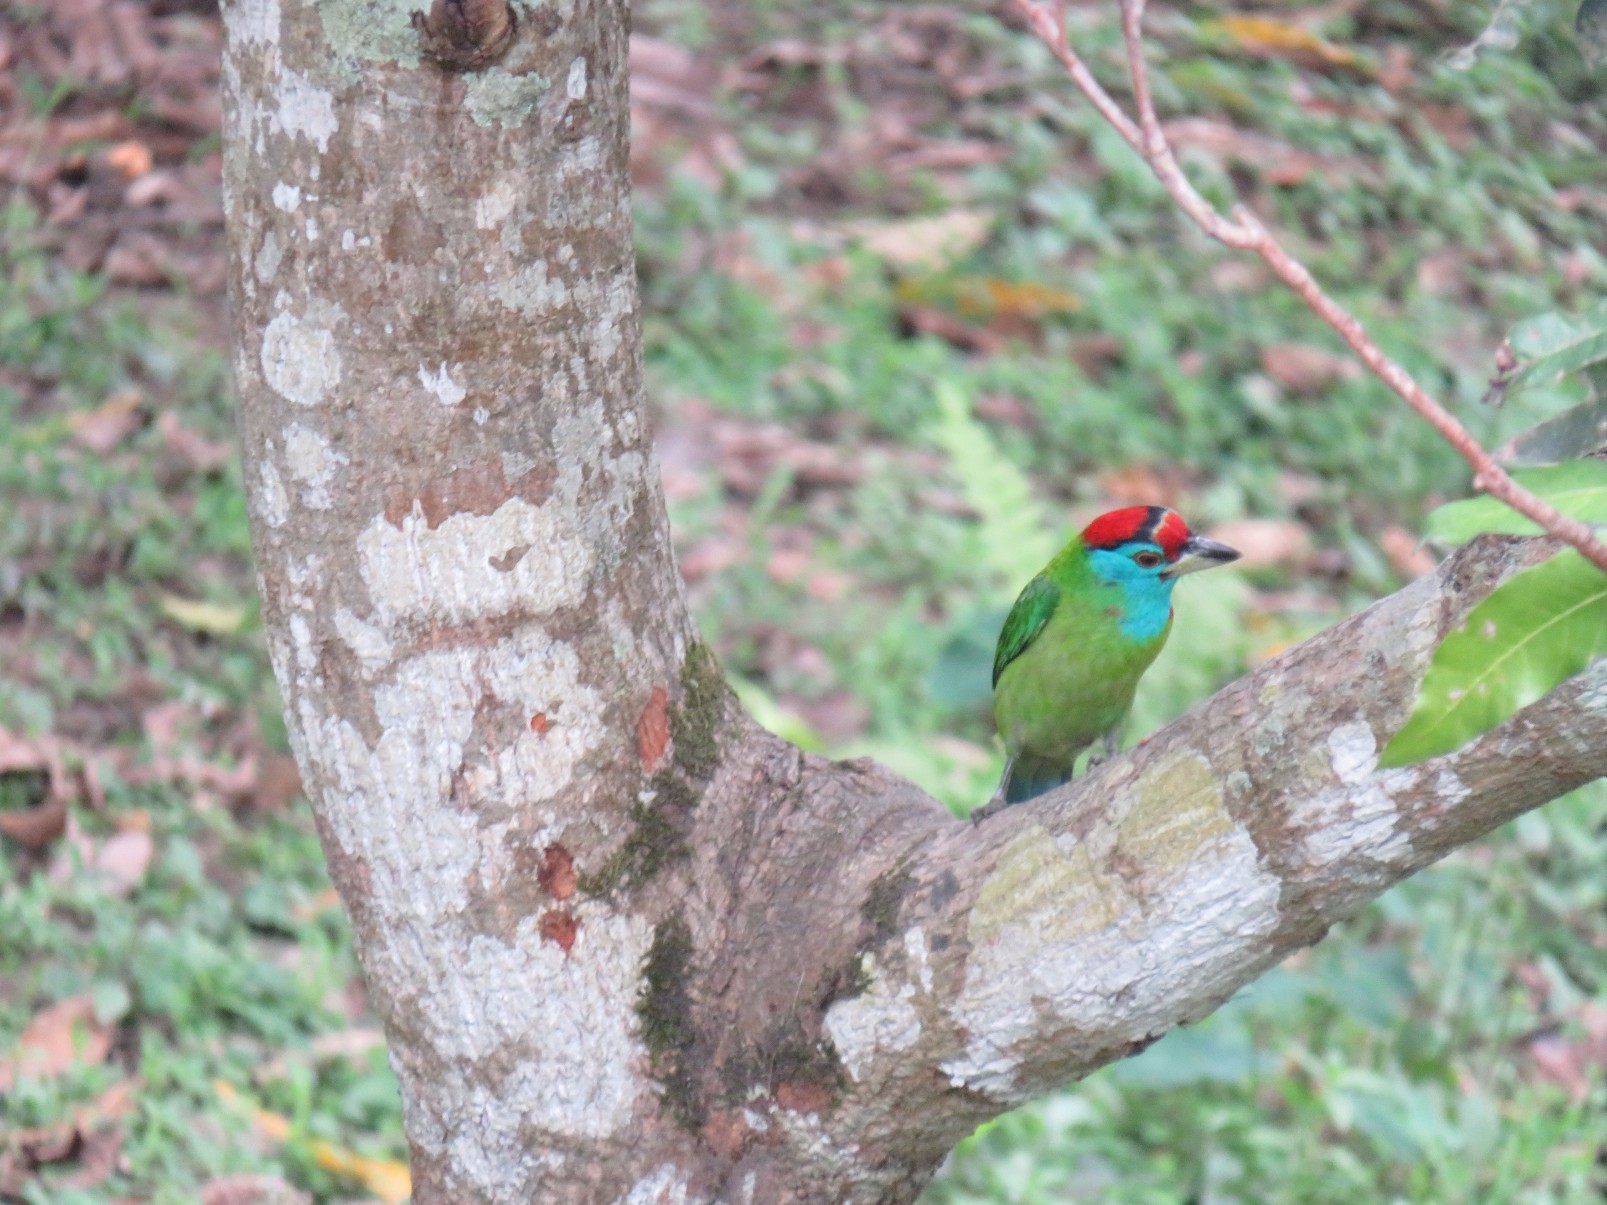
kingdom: Animalia
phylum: Chordata
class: Aves
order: Piciformes
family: Megalaimidae
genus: Psilopogon
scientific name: Psilopogon asiaticus
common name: Blue-throated barbet
